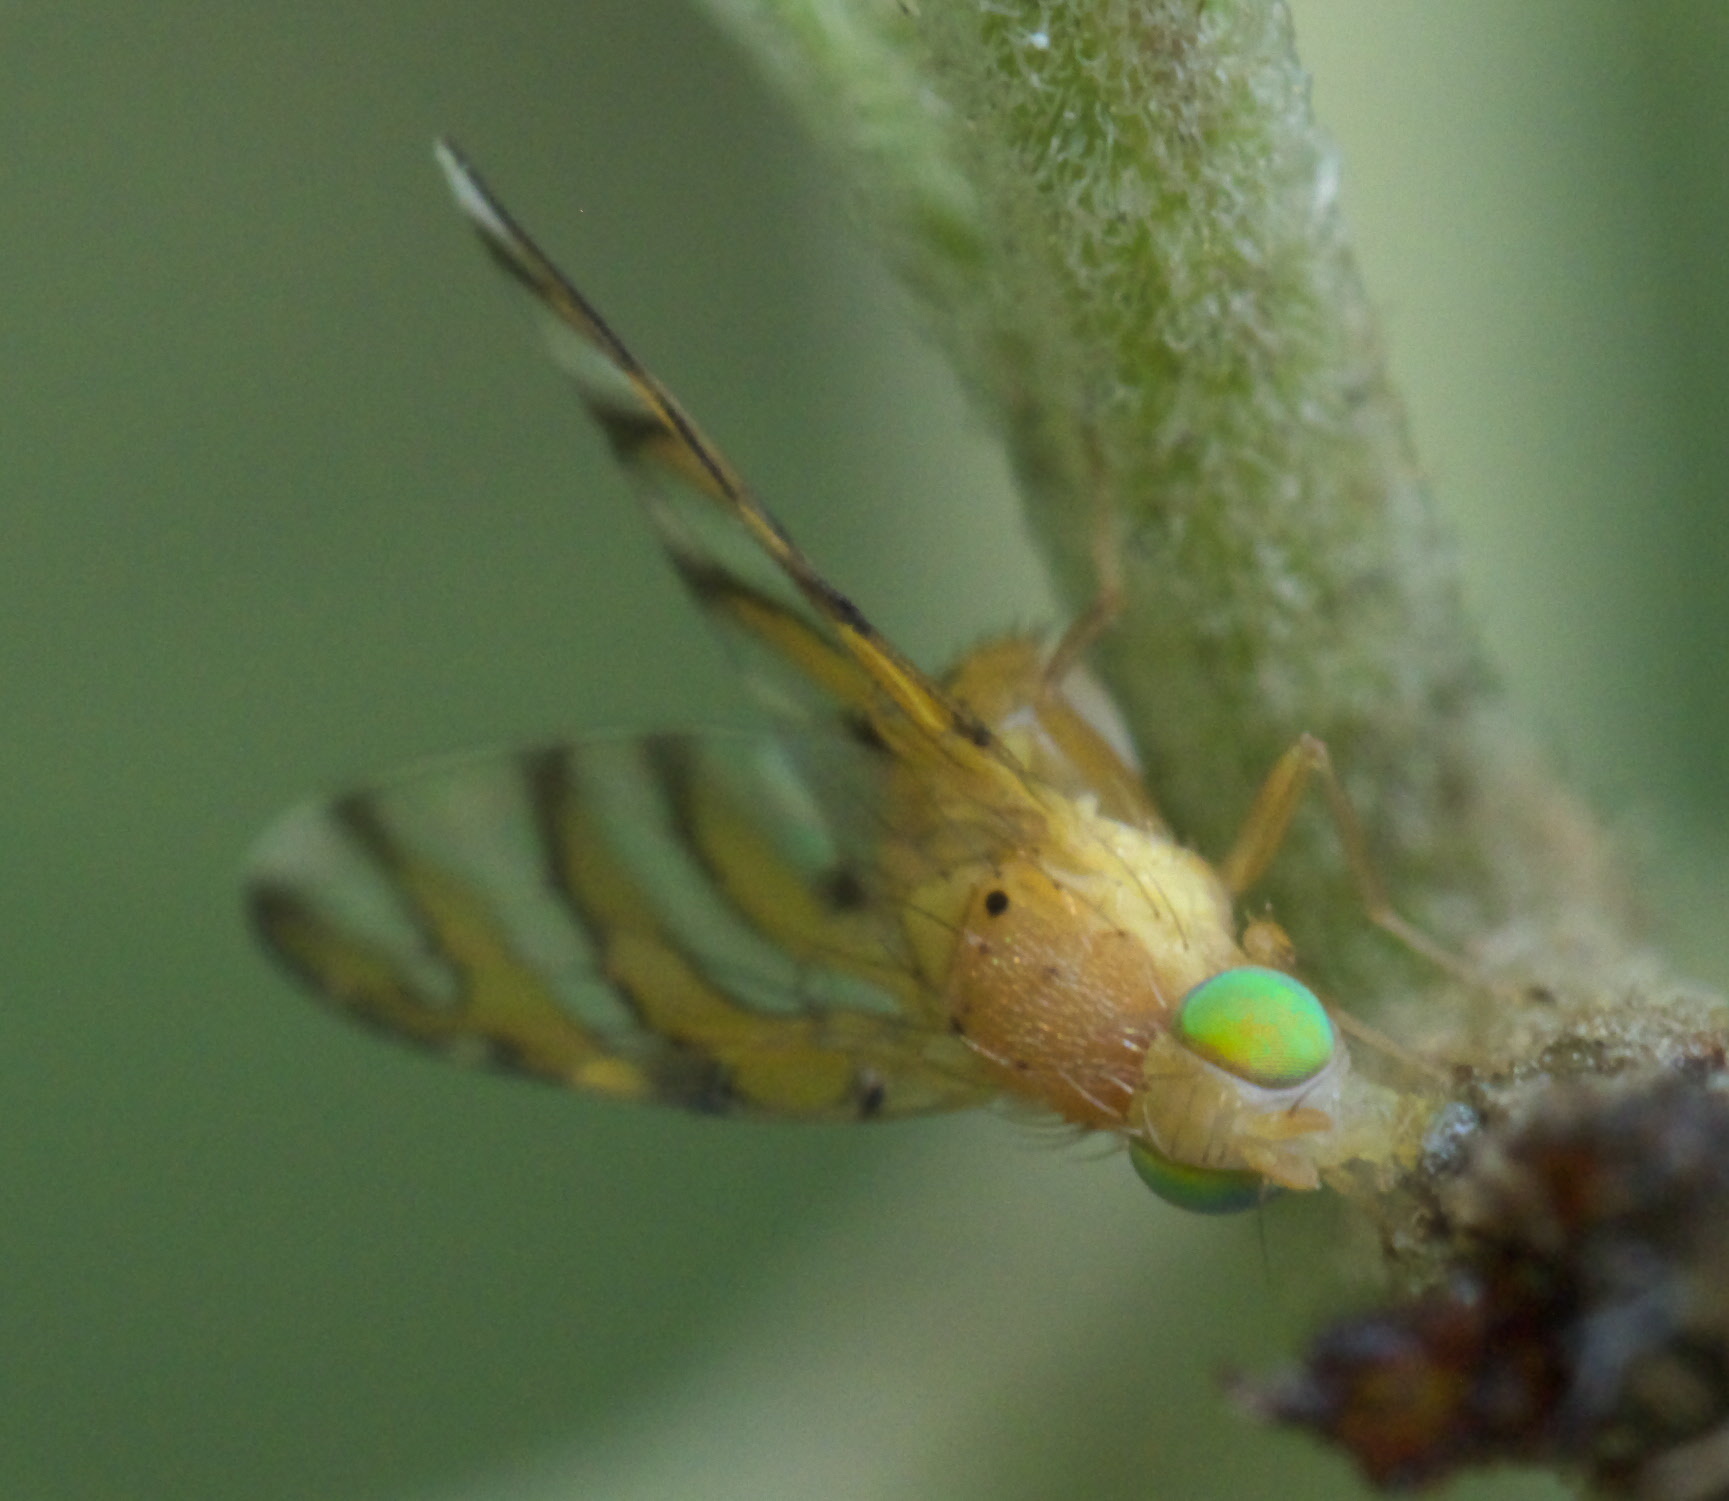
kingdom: Animalia
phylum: Arthropoda
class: Insecta
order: Diptera
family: Tephritidae
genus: Tomoplagia
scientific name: Tomoplagia obliqua
